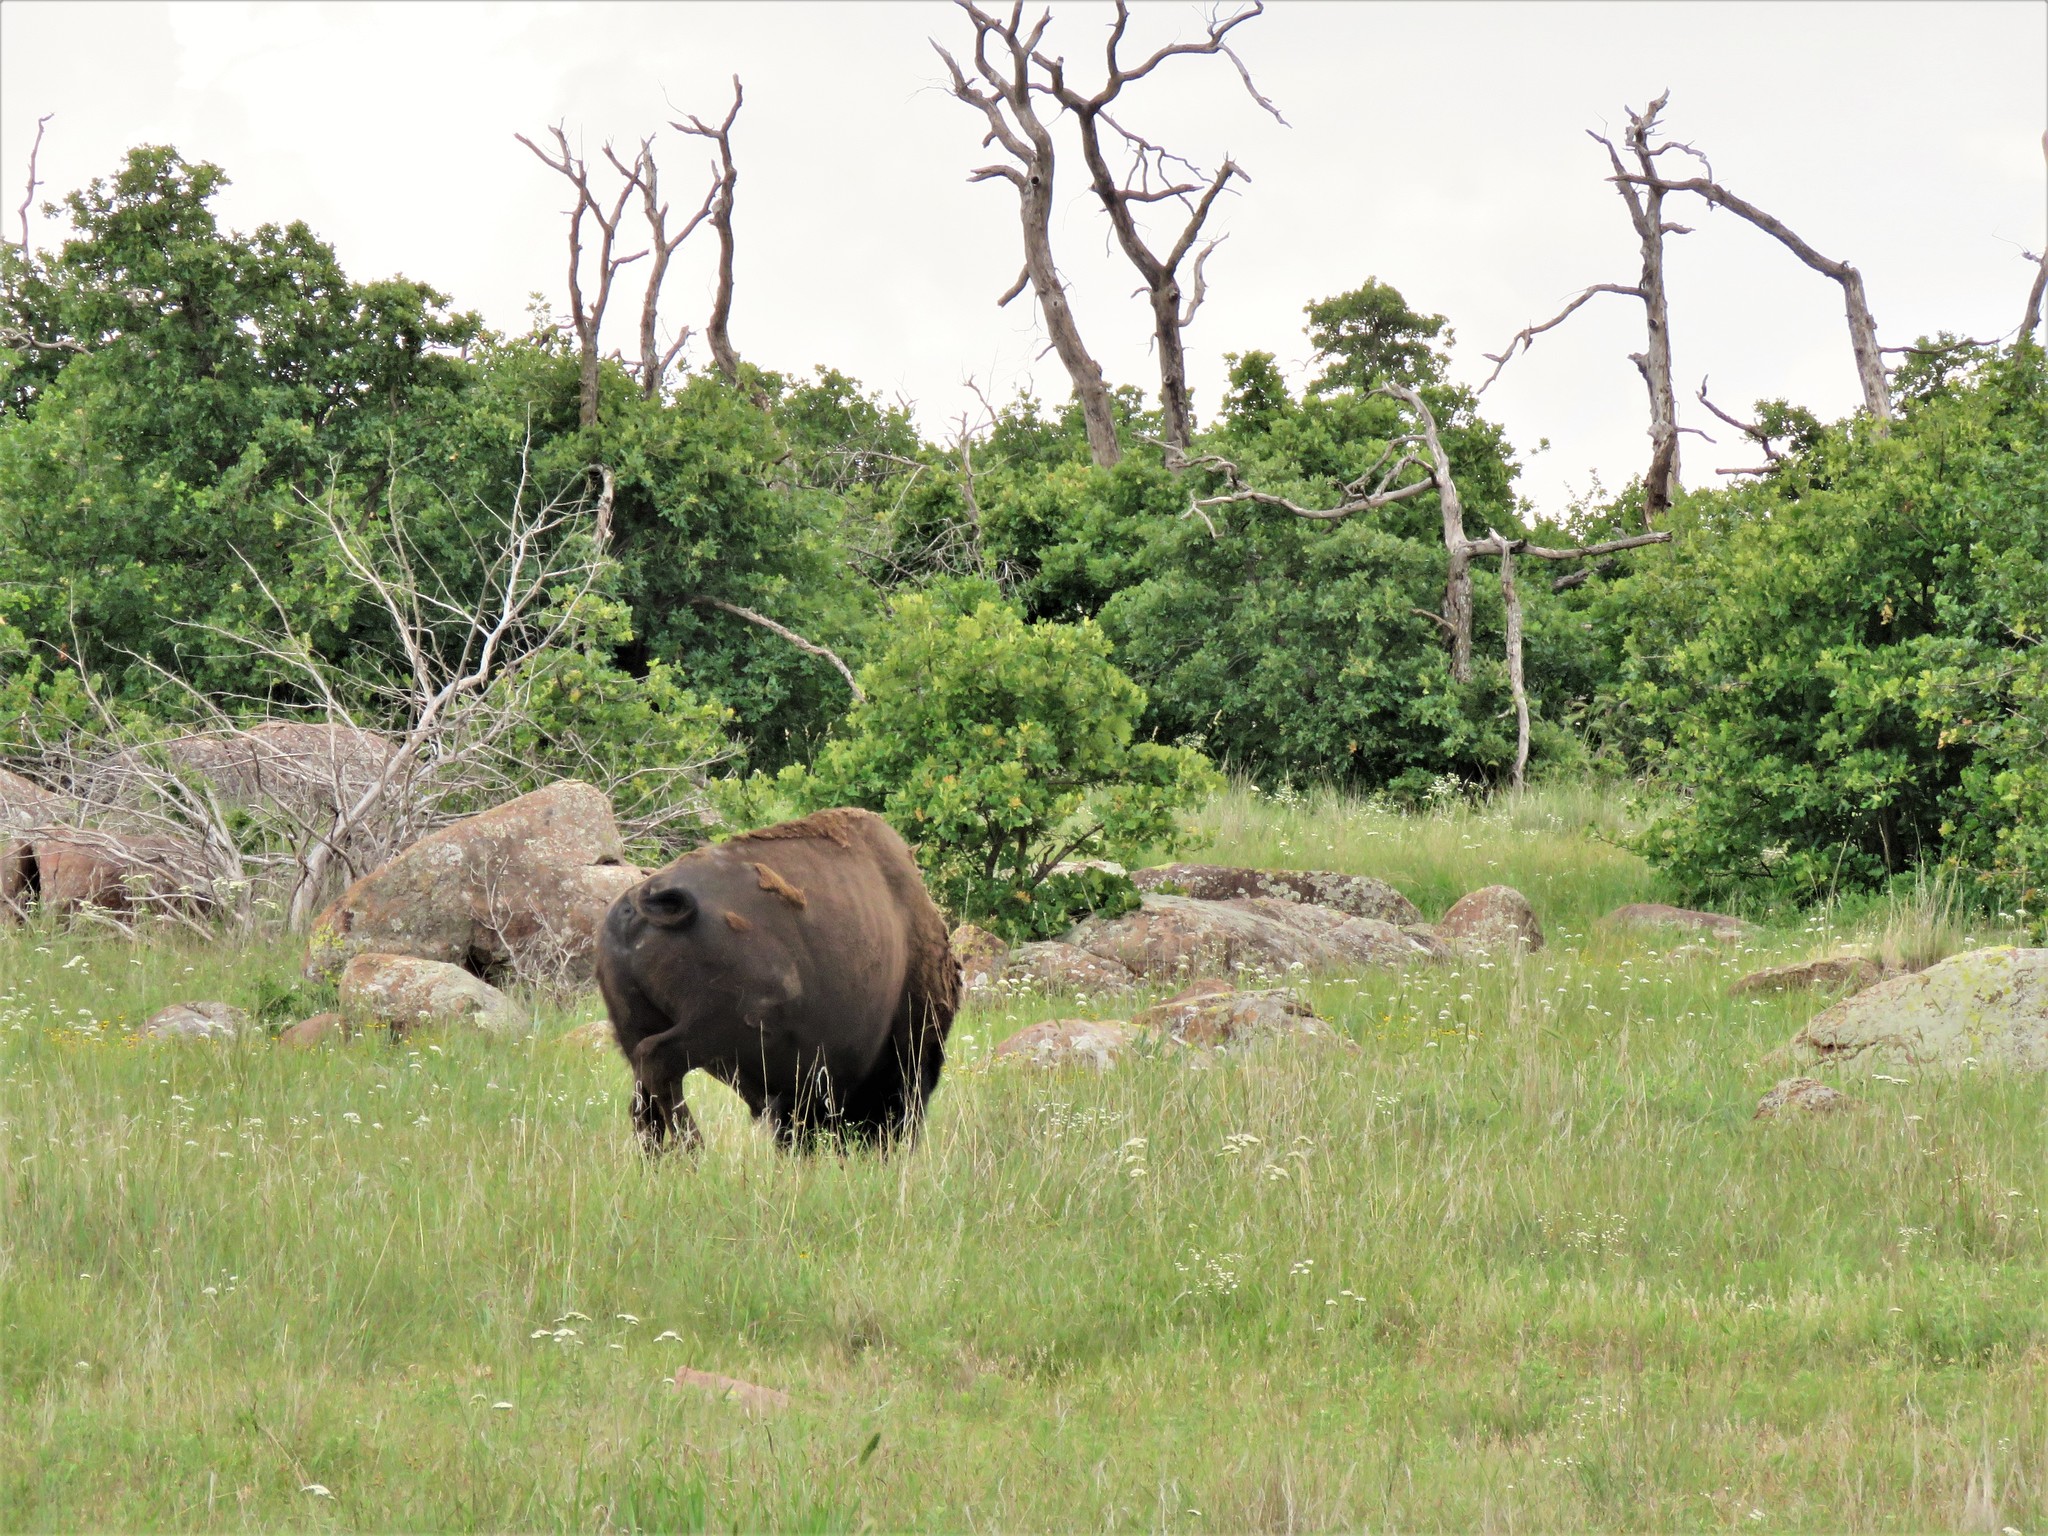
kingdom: Animalia
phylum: Chordata
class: Mammalia
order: Artiodactyla
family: Bovidae
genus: Bison
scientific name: Bison bison
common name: American bison
